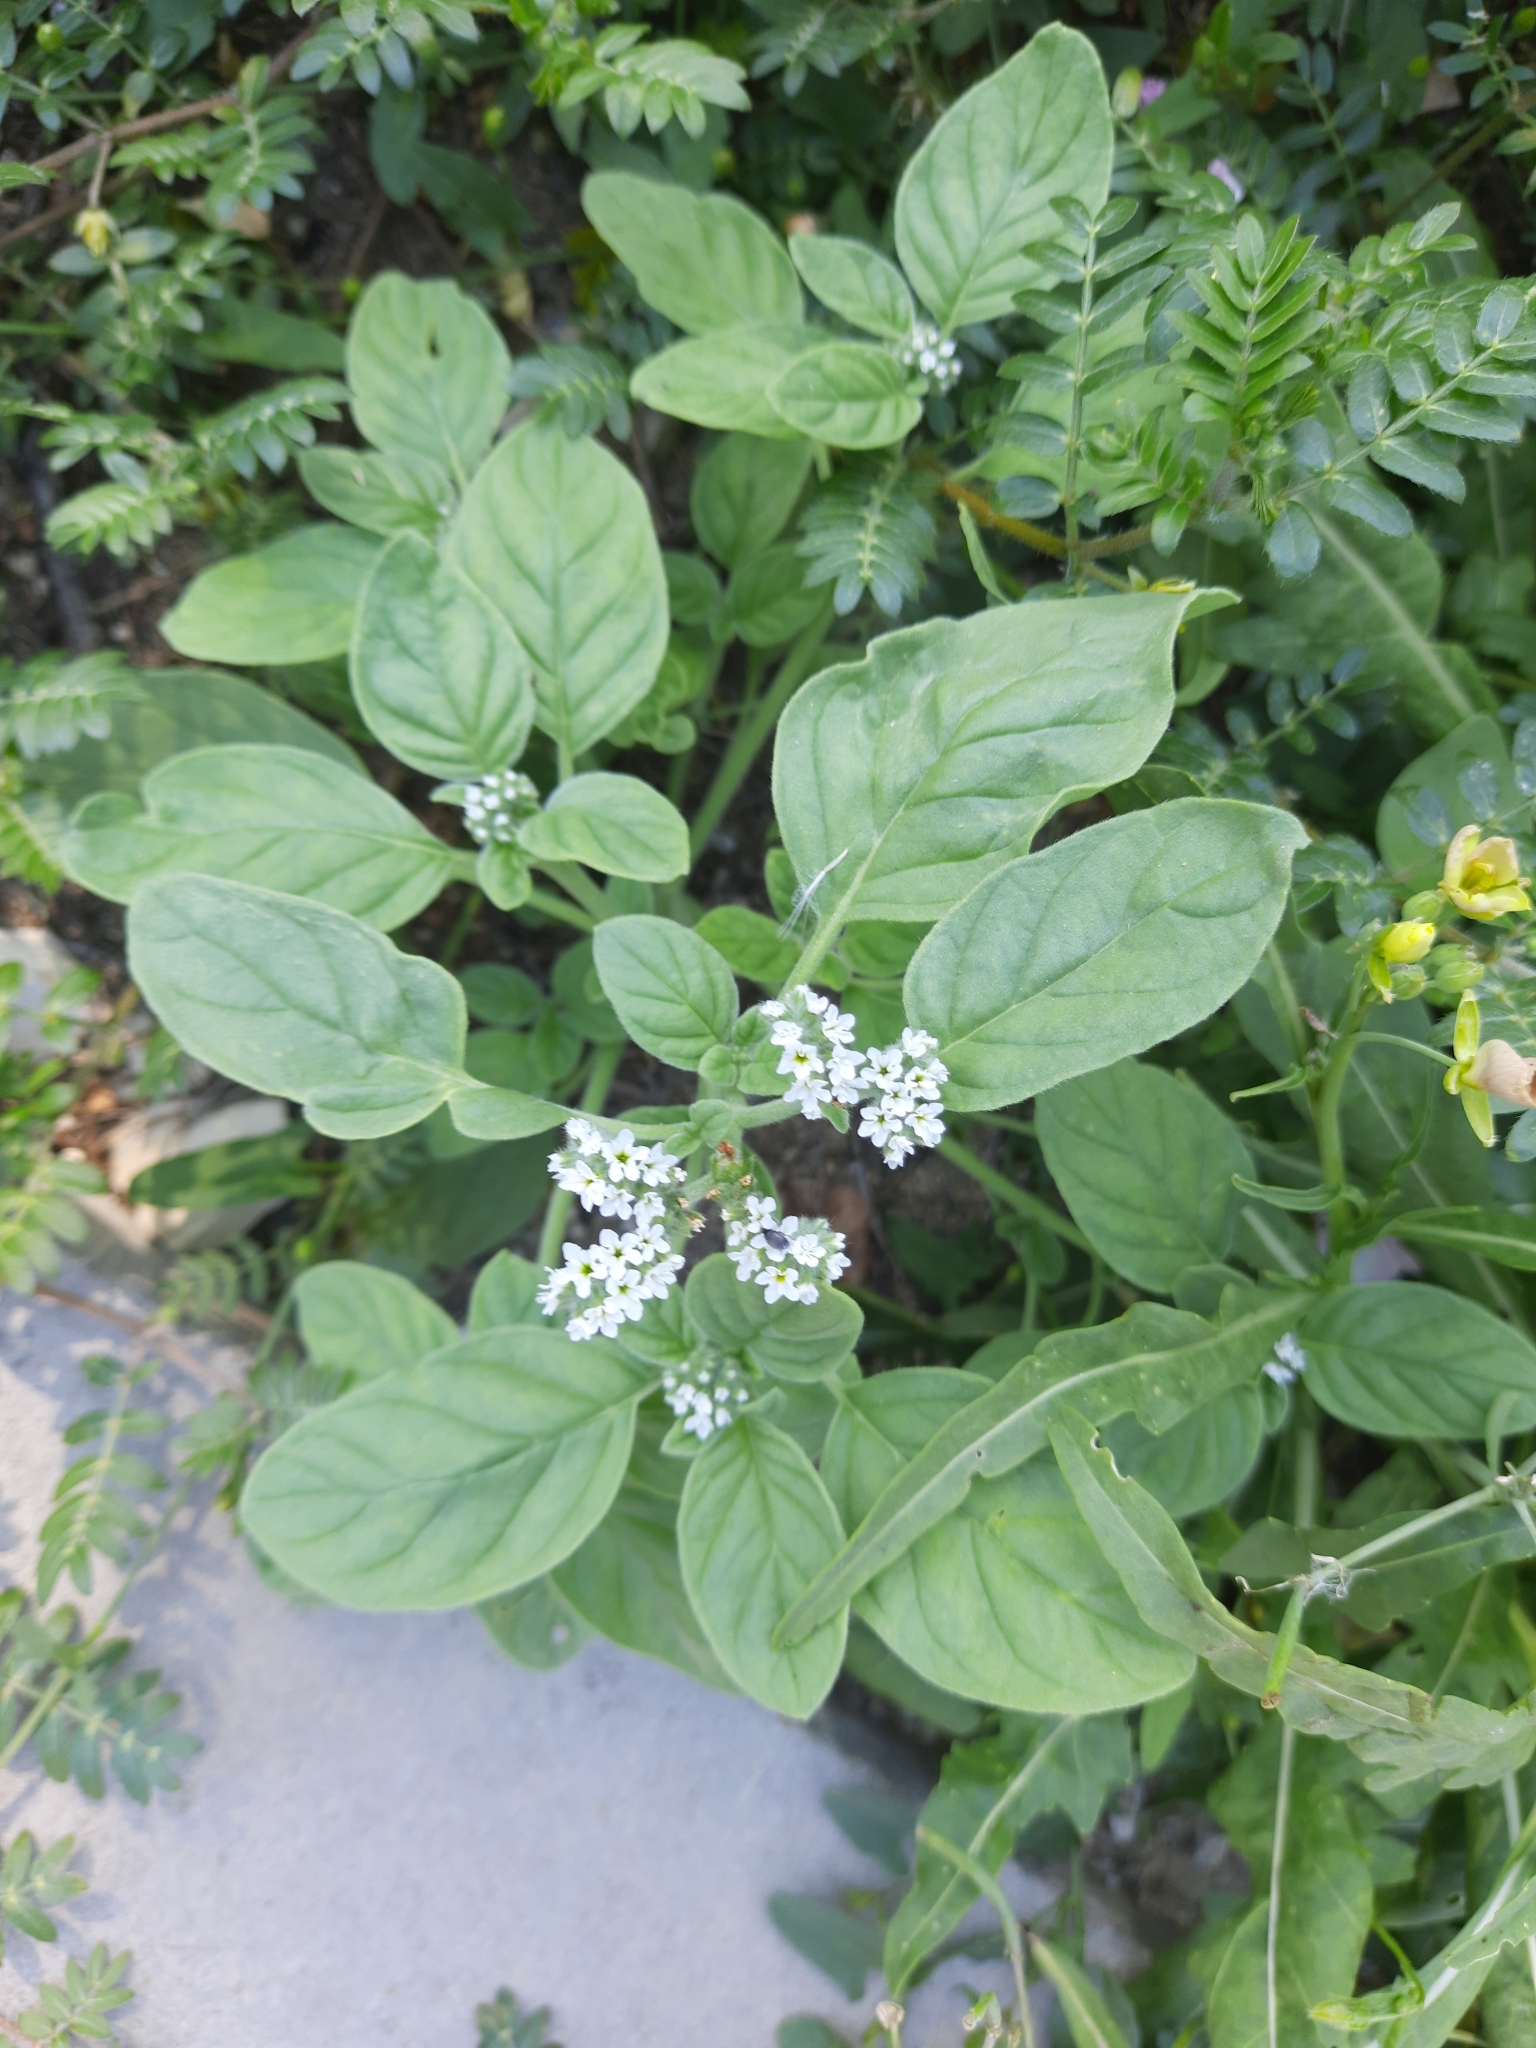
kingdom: Plantae
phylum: Tracheophyta
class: Magnoliopsida
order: Boraginales
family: Heliotropiaceae
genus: Heliotropium
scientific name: Heliotropium europaeum
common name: European heliotrope
